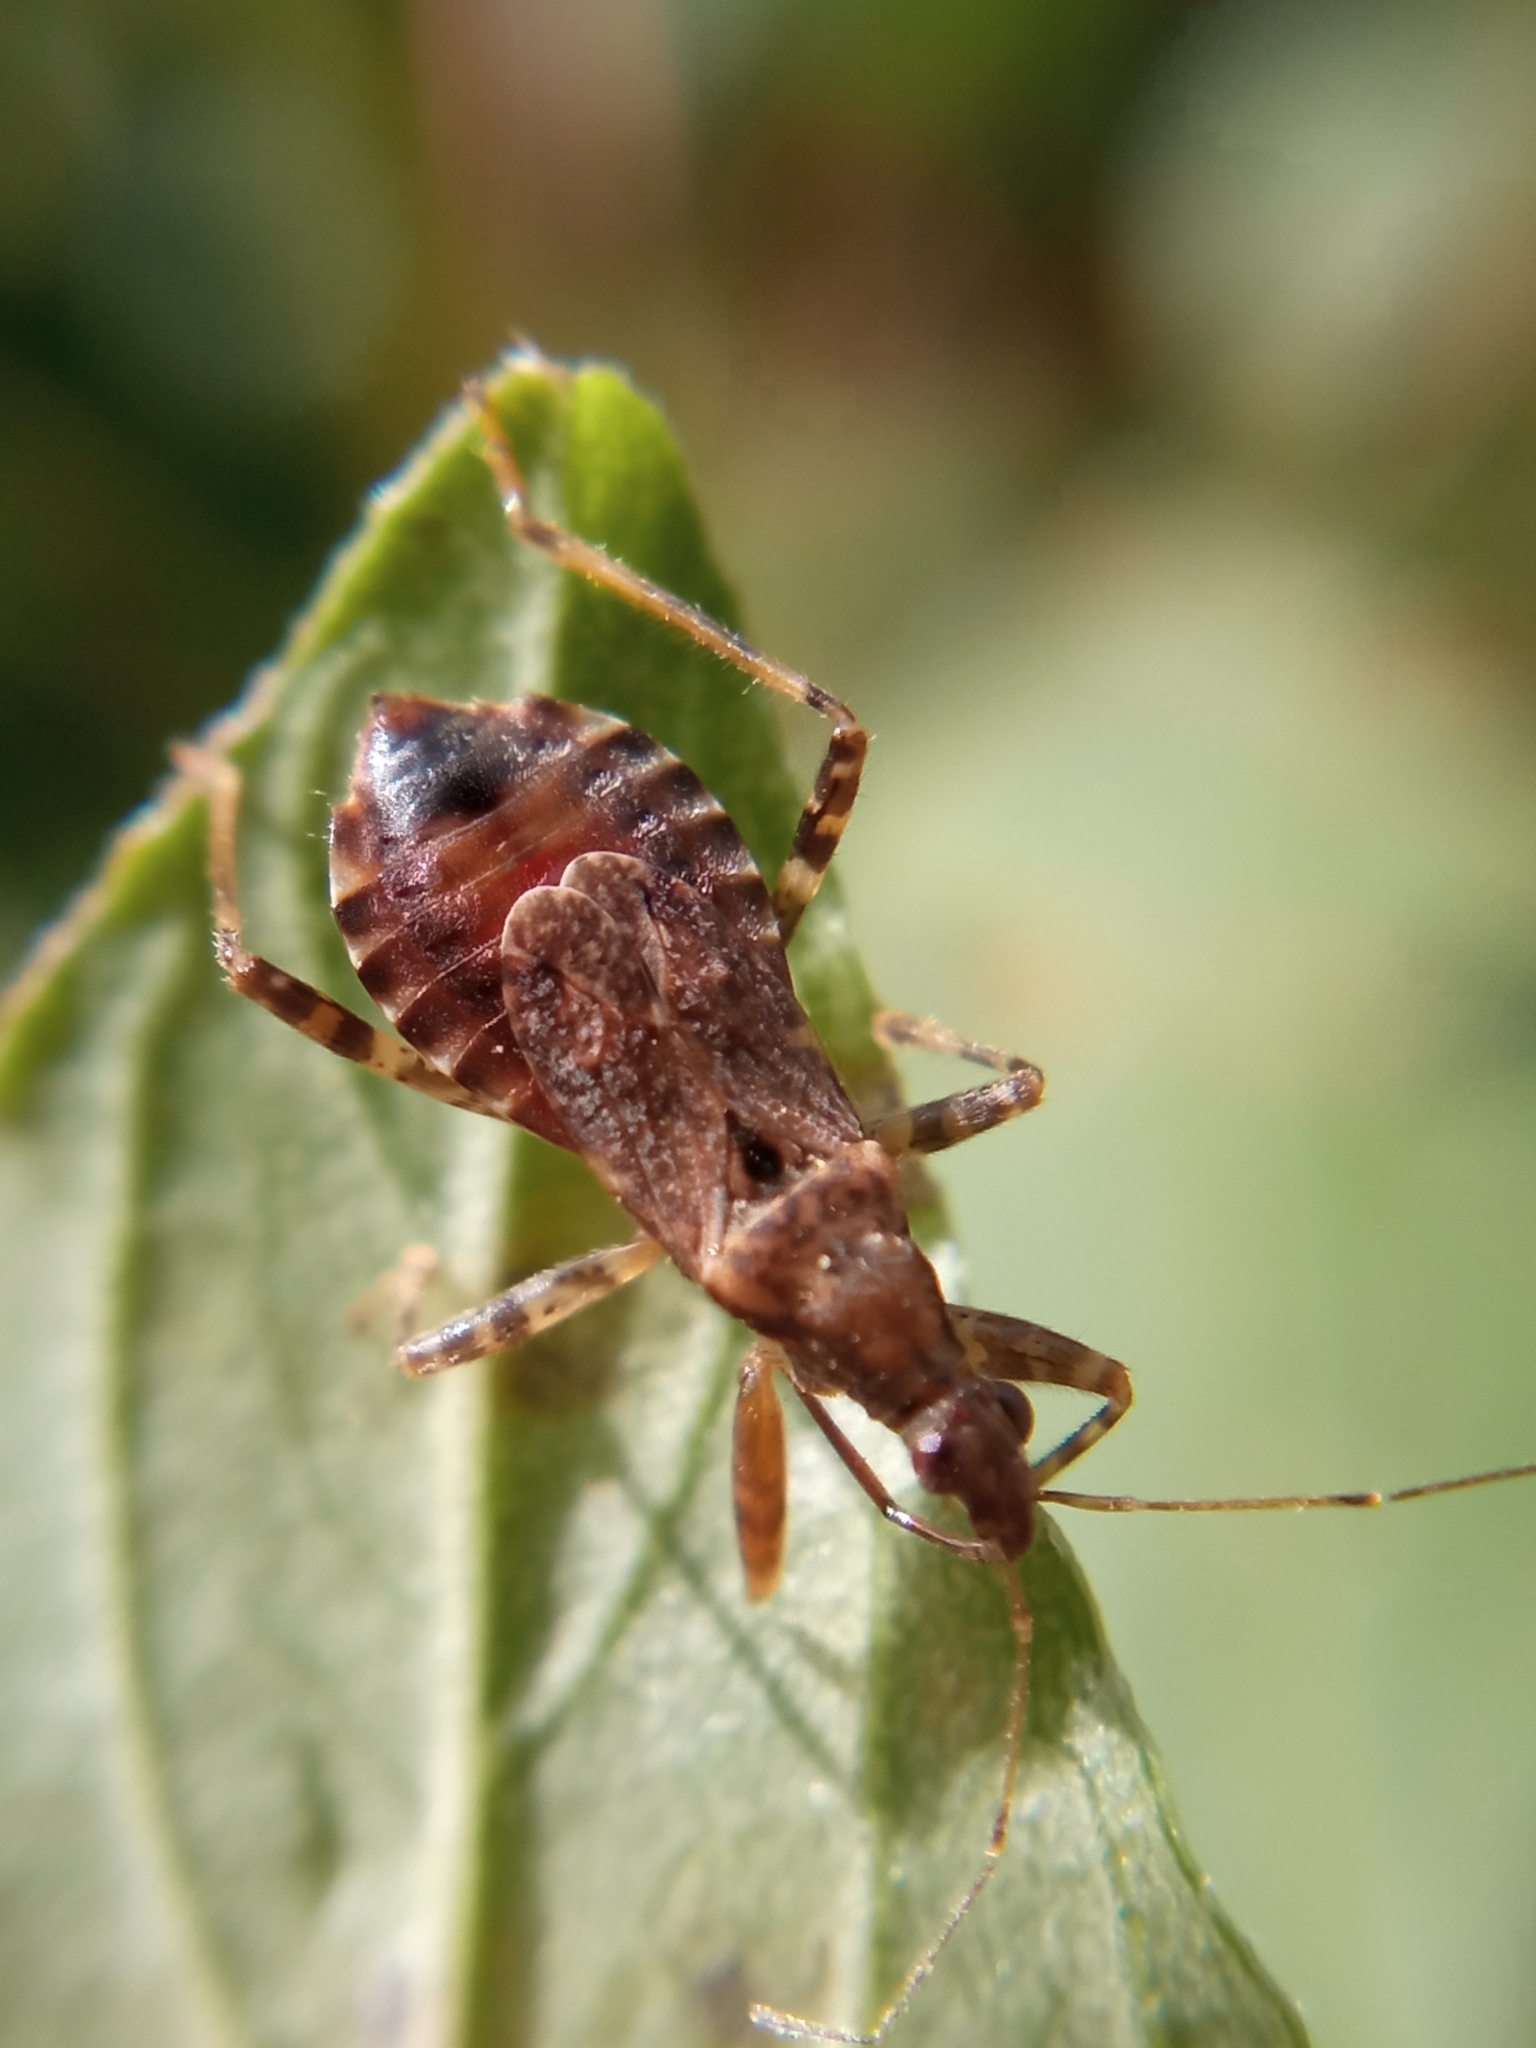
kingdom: Animalia
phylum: Arthropoda
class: Insecta
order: Hemiptera
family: Nabidae
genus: Himacerus
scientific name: Himacerus mirmicoides
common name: Ant damsel bug
